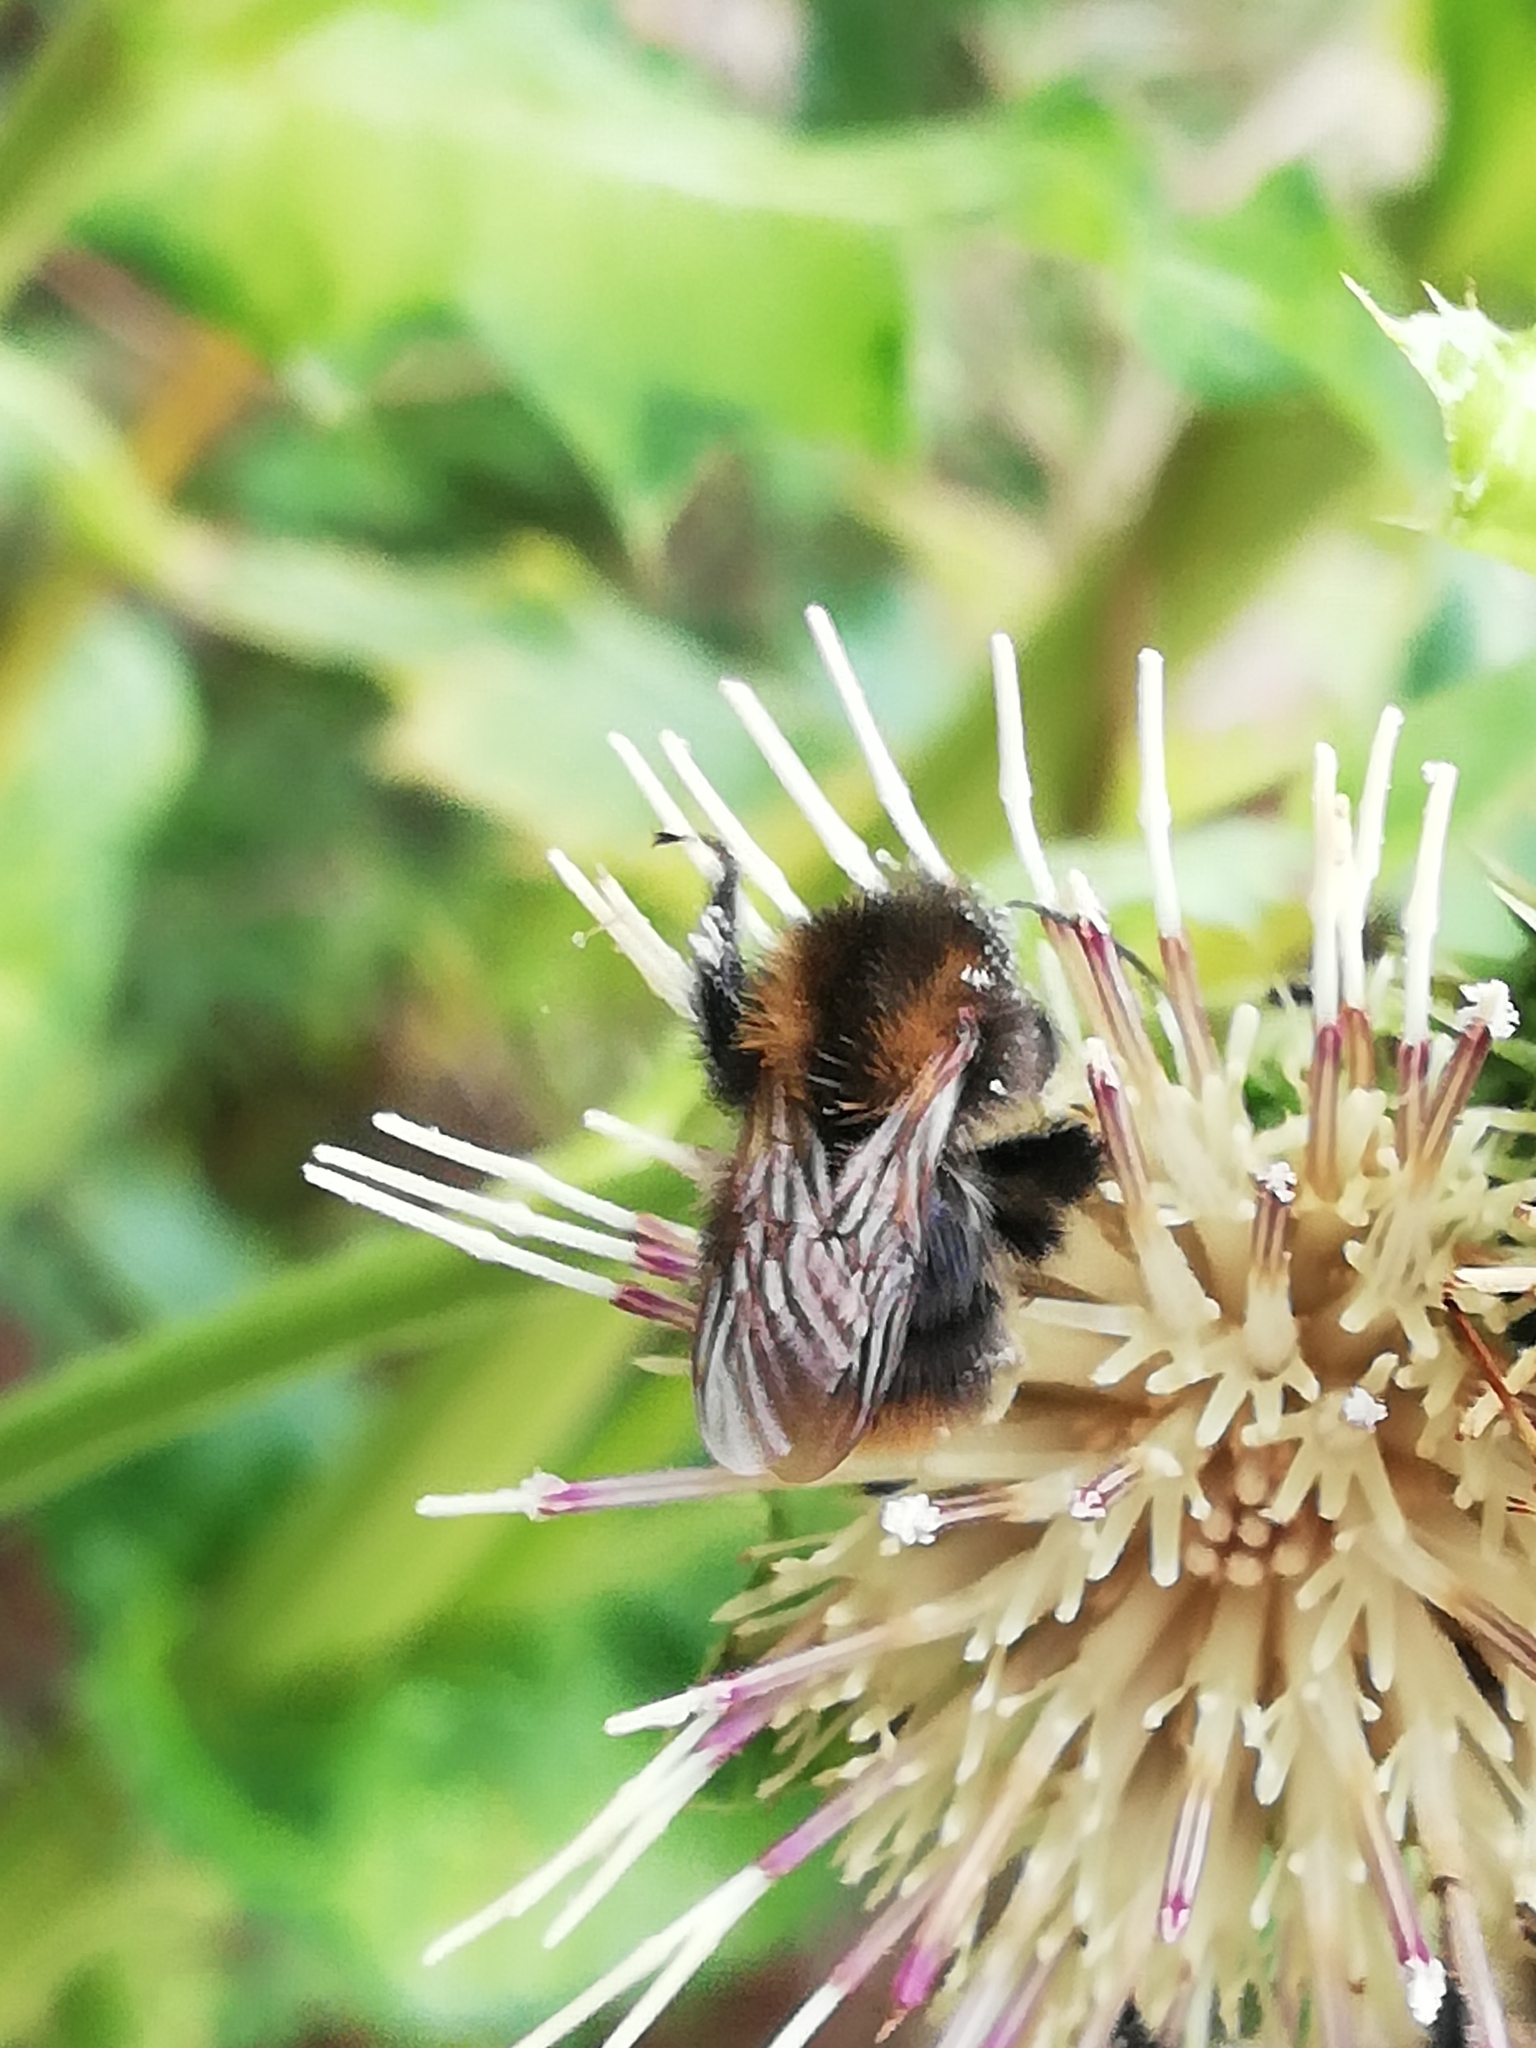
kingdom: Animalia
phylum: Arthropoda
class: Insecta
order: Hymenoptera
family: Apidae
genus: Bombus
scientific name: Bombus pascuorum
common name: Common carder bee
